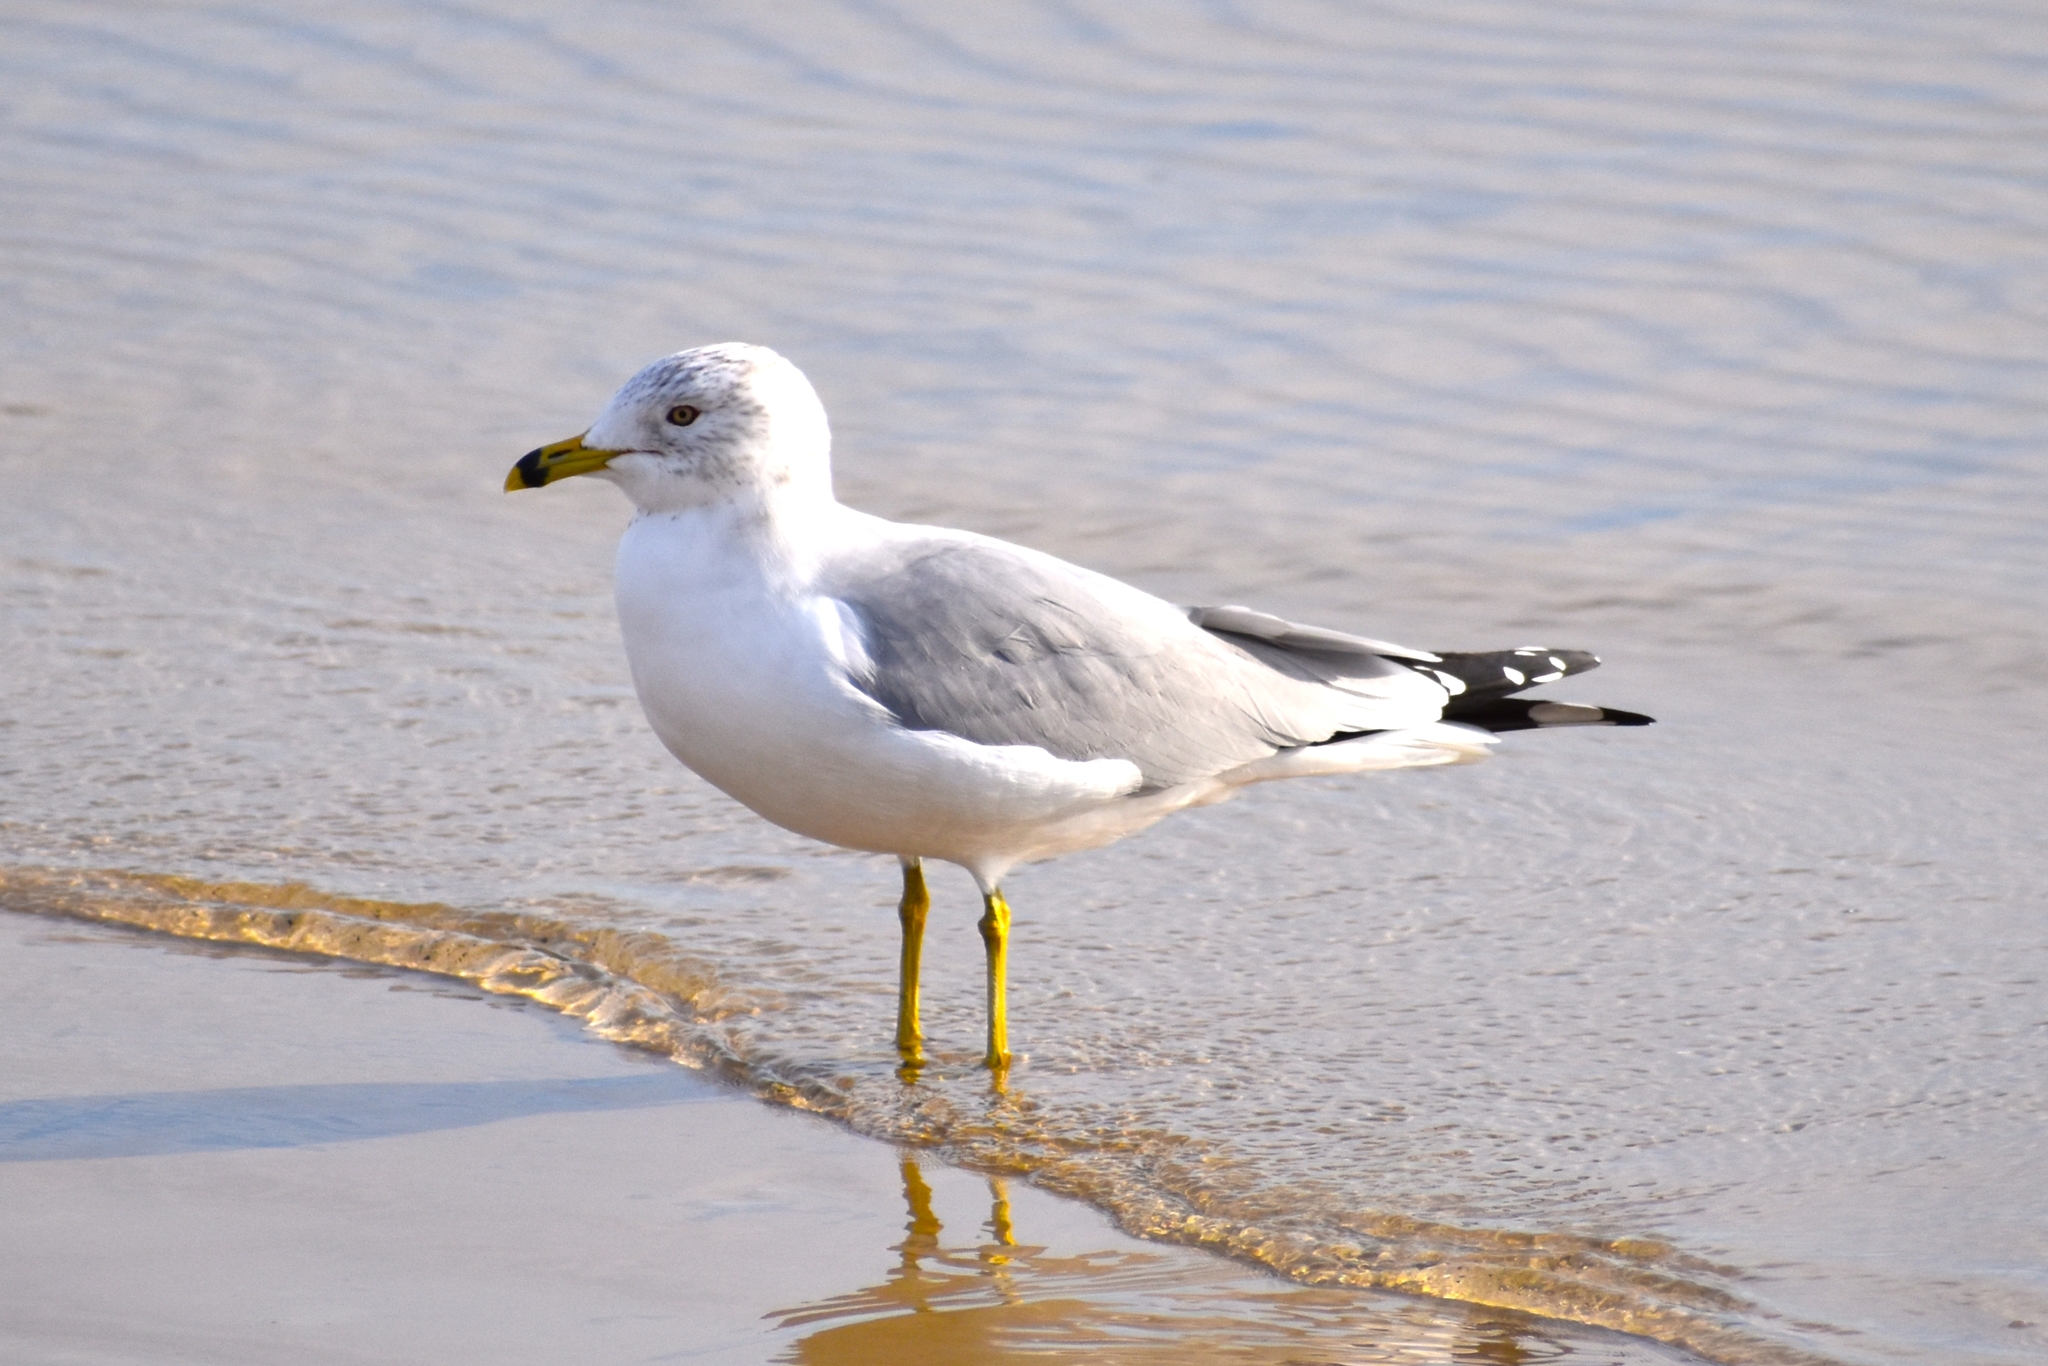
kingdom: Animalia
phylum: Chordata
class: Aves
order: Charadriiformes
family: Laridae
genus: Larus
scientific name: Larus delawarensis
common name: Ring-billed gull
